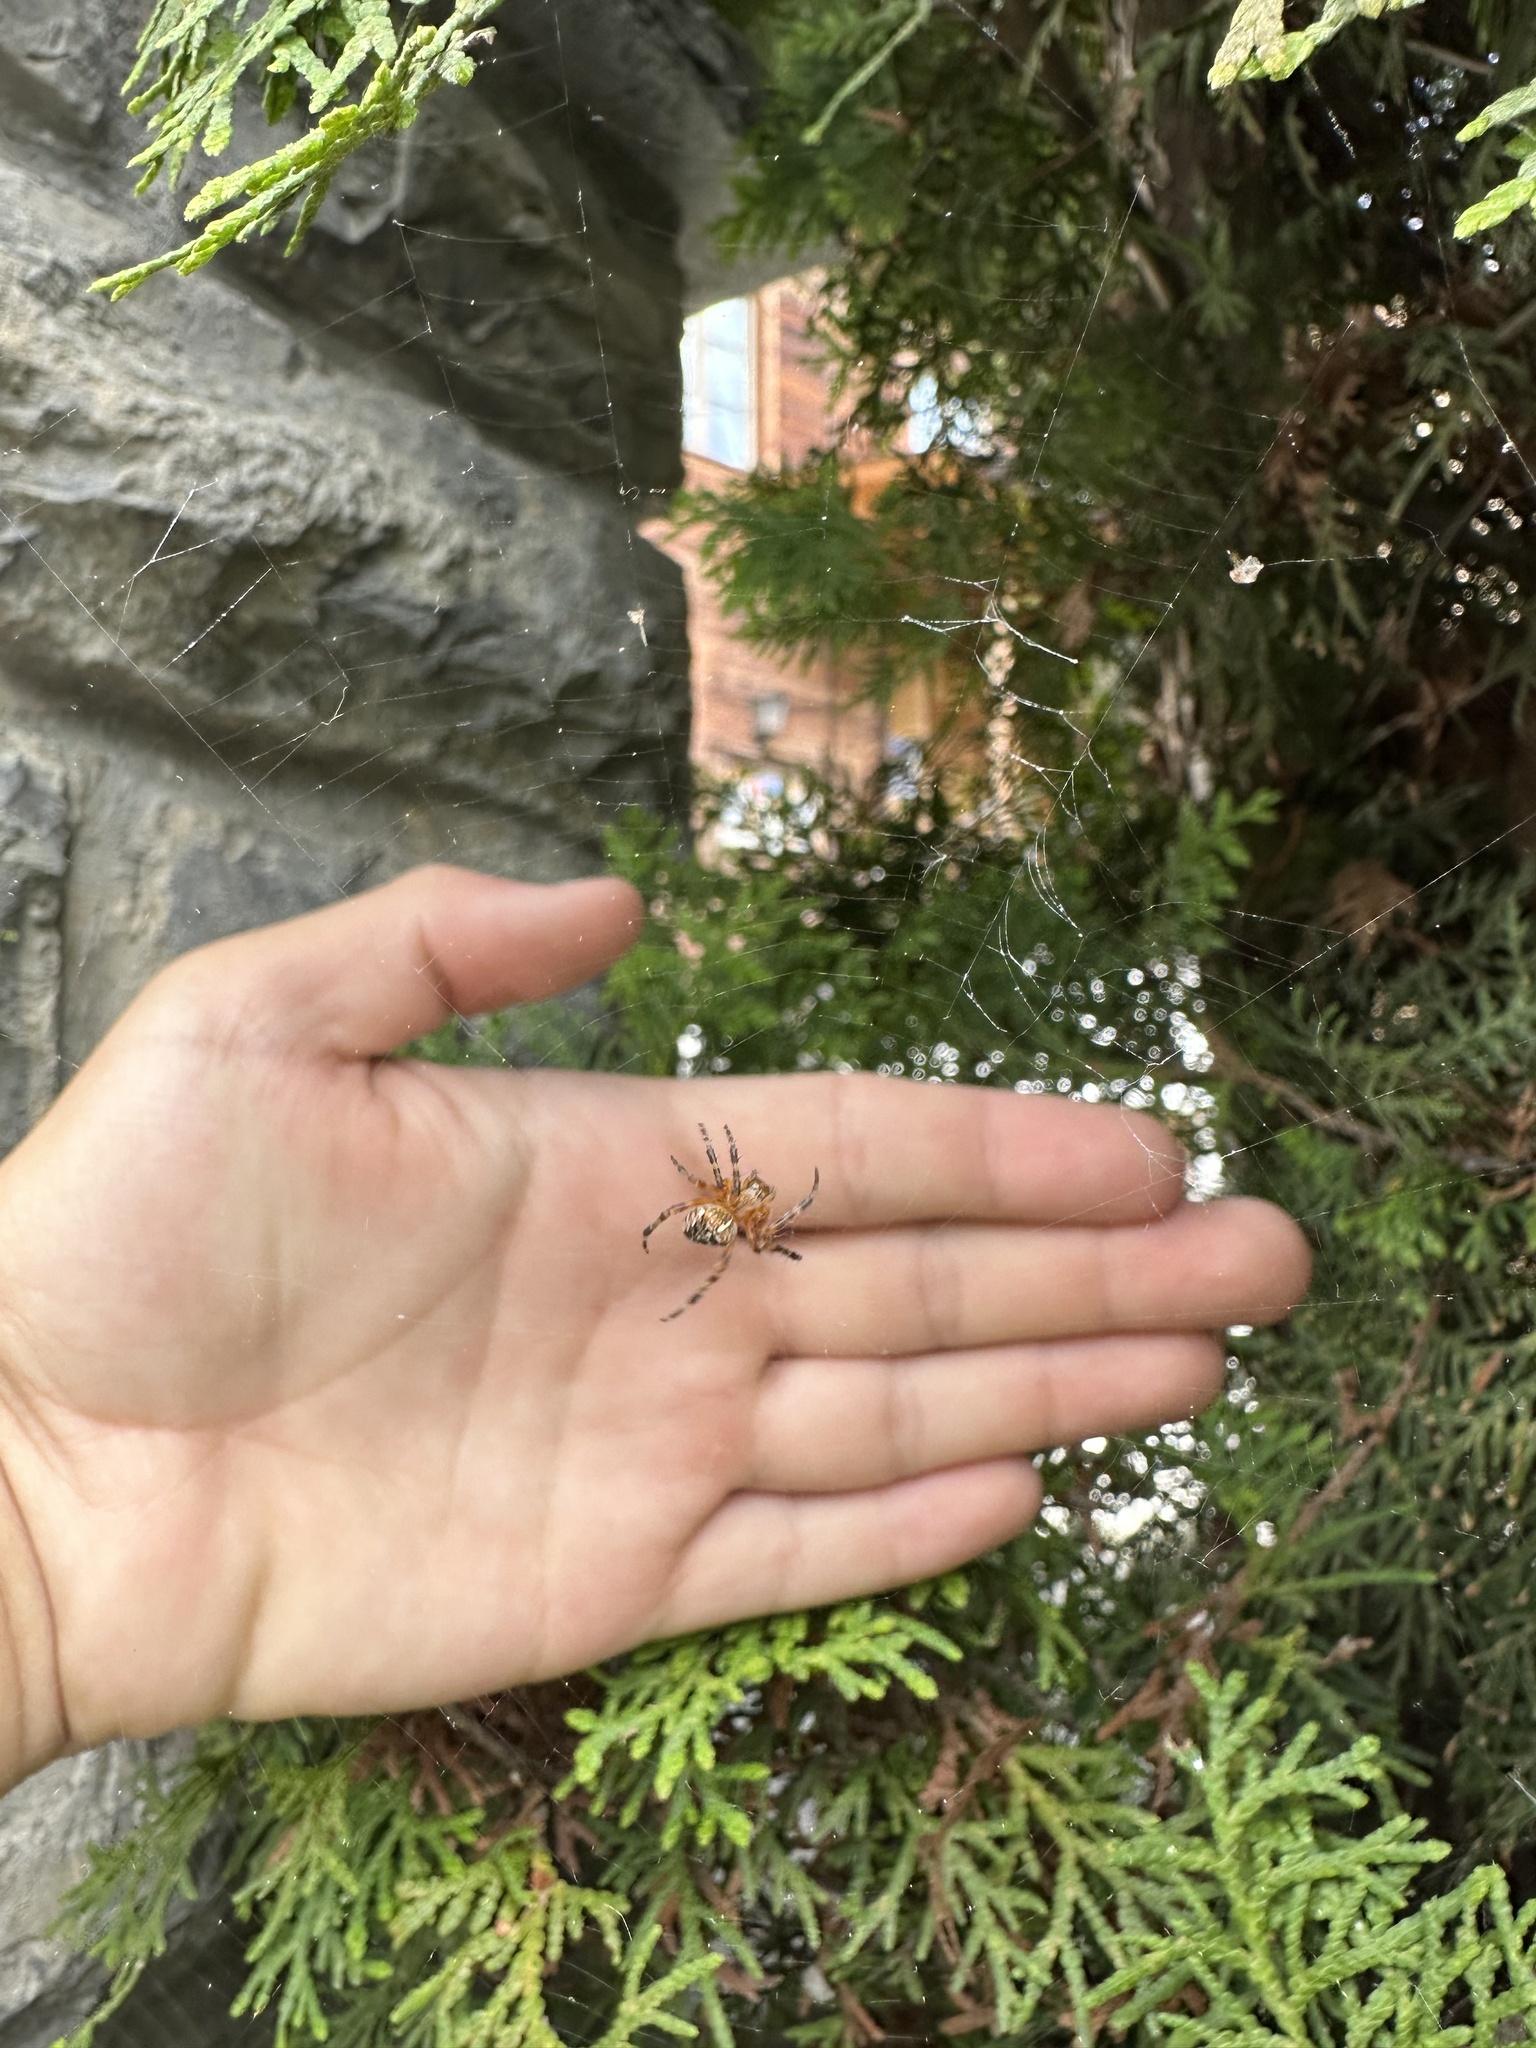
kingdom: Animalia
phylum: Arthropoda
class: Arachnida
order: Araneae
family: Araneidae
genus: Araneus
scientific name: Araneus diadematus
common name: Cross orbweaver
